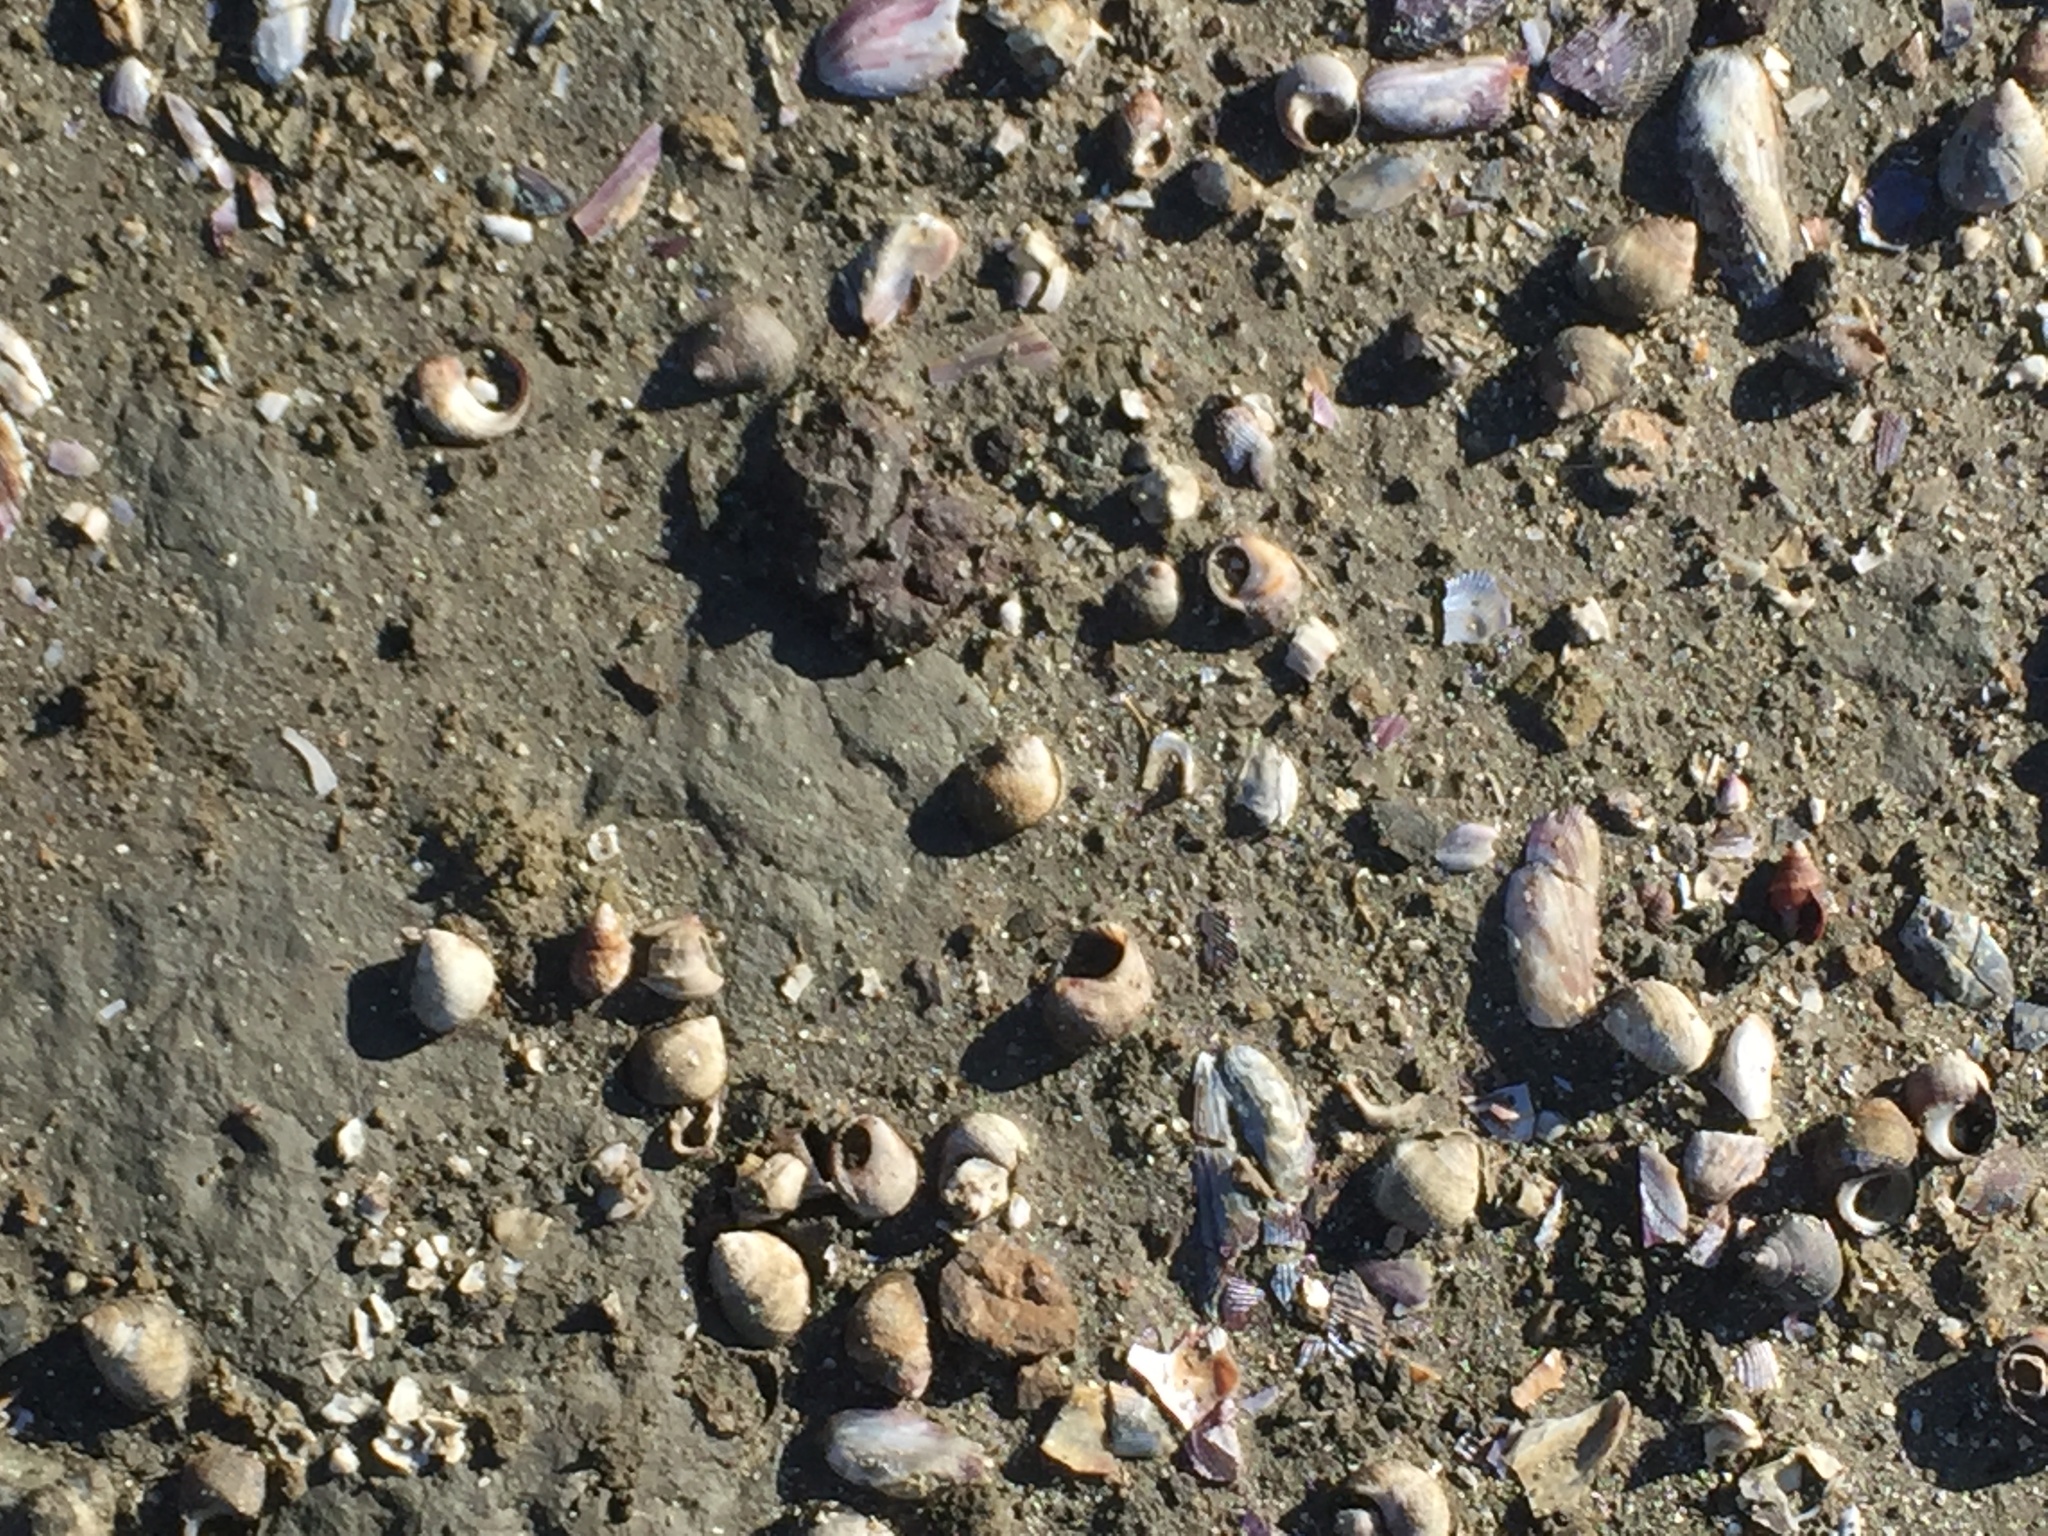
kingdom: Animalia
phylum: Mollusca
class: Gastropoda
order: Neogastropoda
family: Nassariidae
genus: Ilyanassa
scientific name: Ilyanassa obsoleta
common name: Eastern mudsnail
